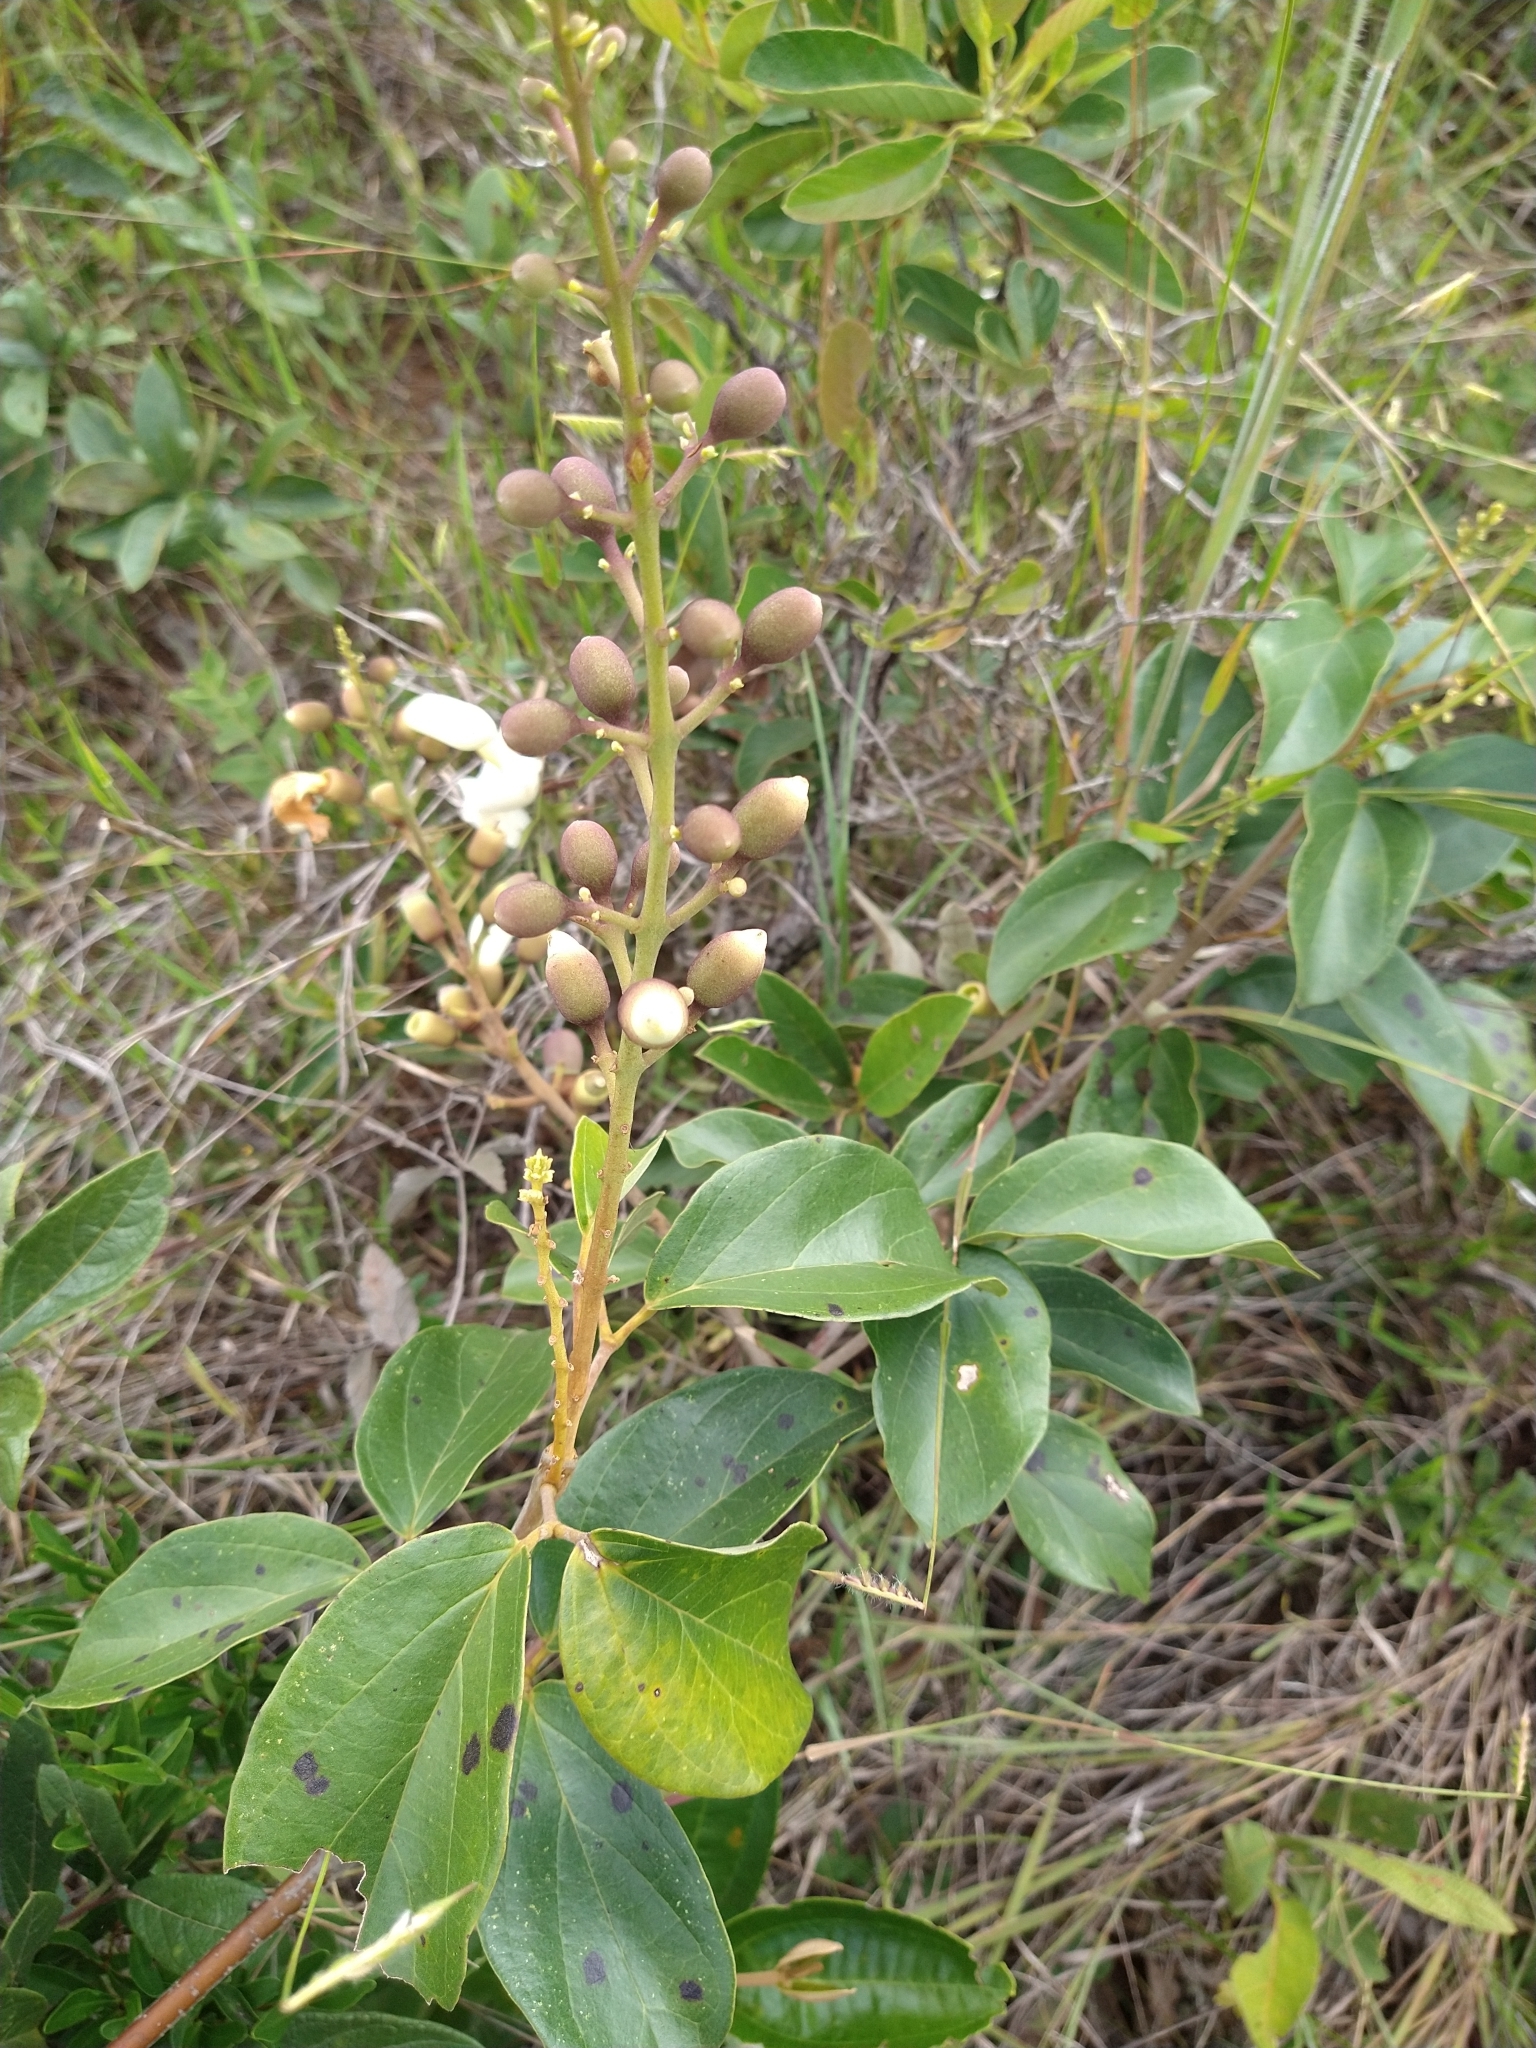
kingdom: Plantae
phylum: Tracheophyta
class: Magnoliopsida
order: Lamiales
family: Bignoniaceae
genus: Amphilophium
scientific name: Amphilophium elongatum
